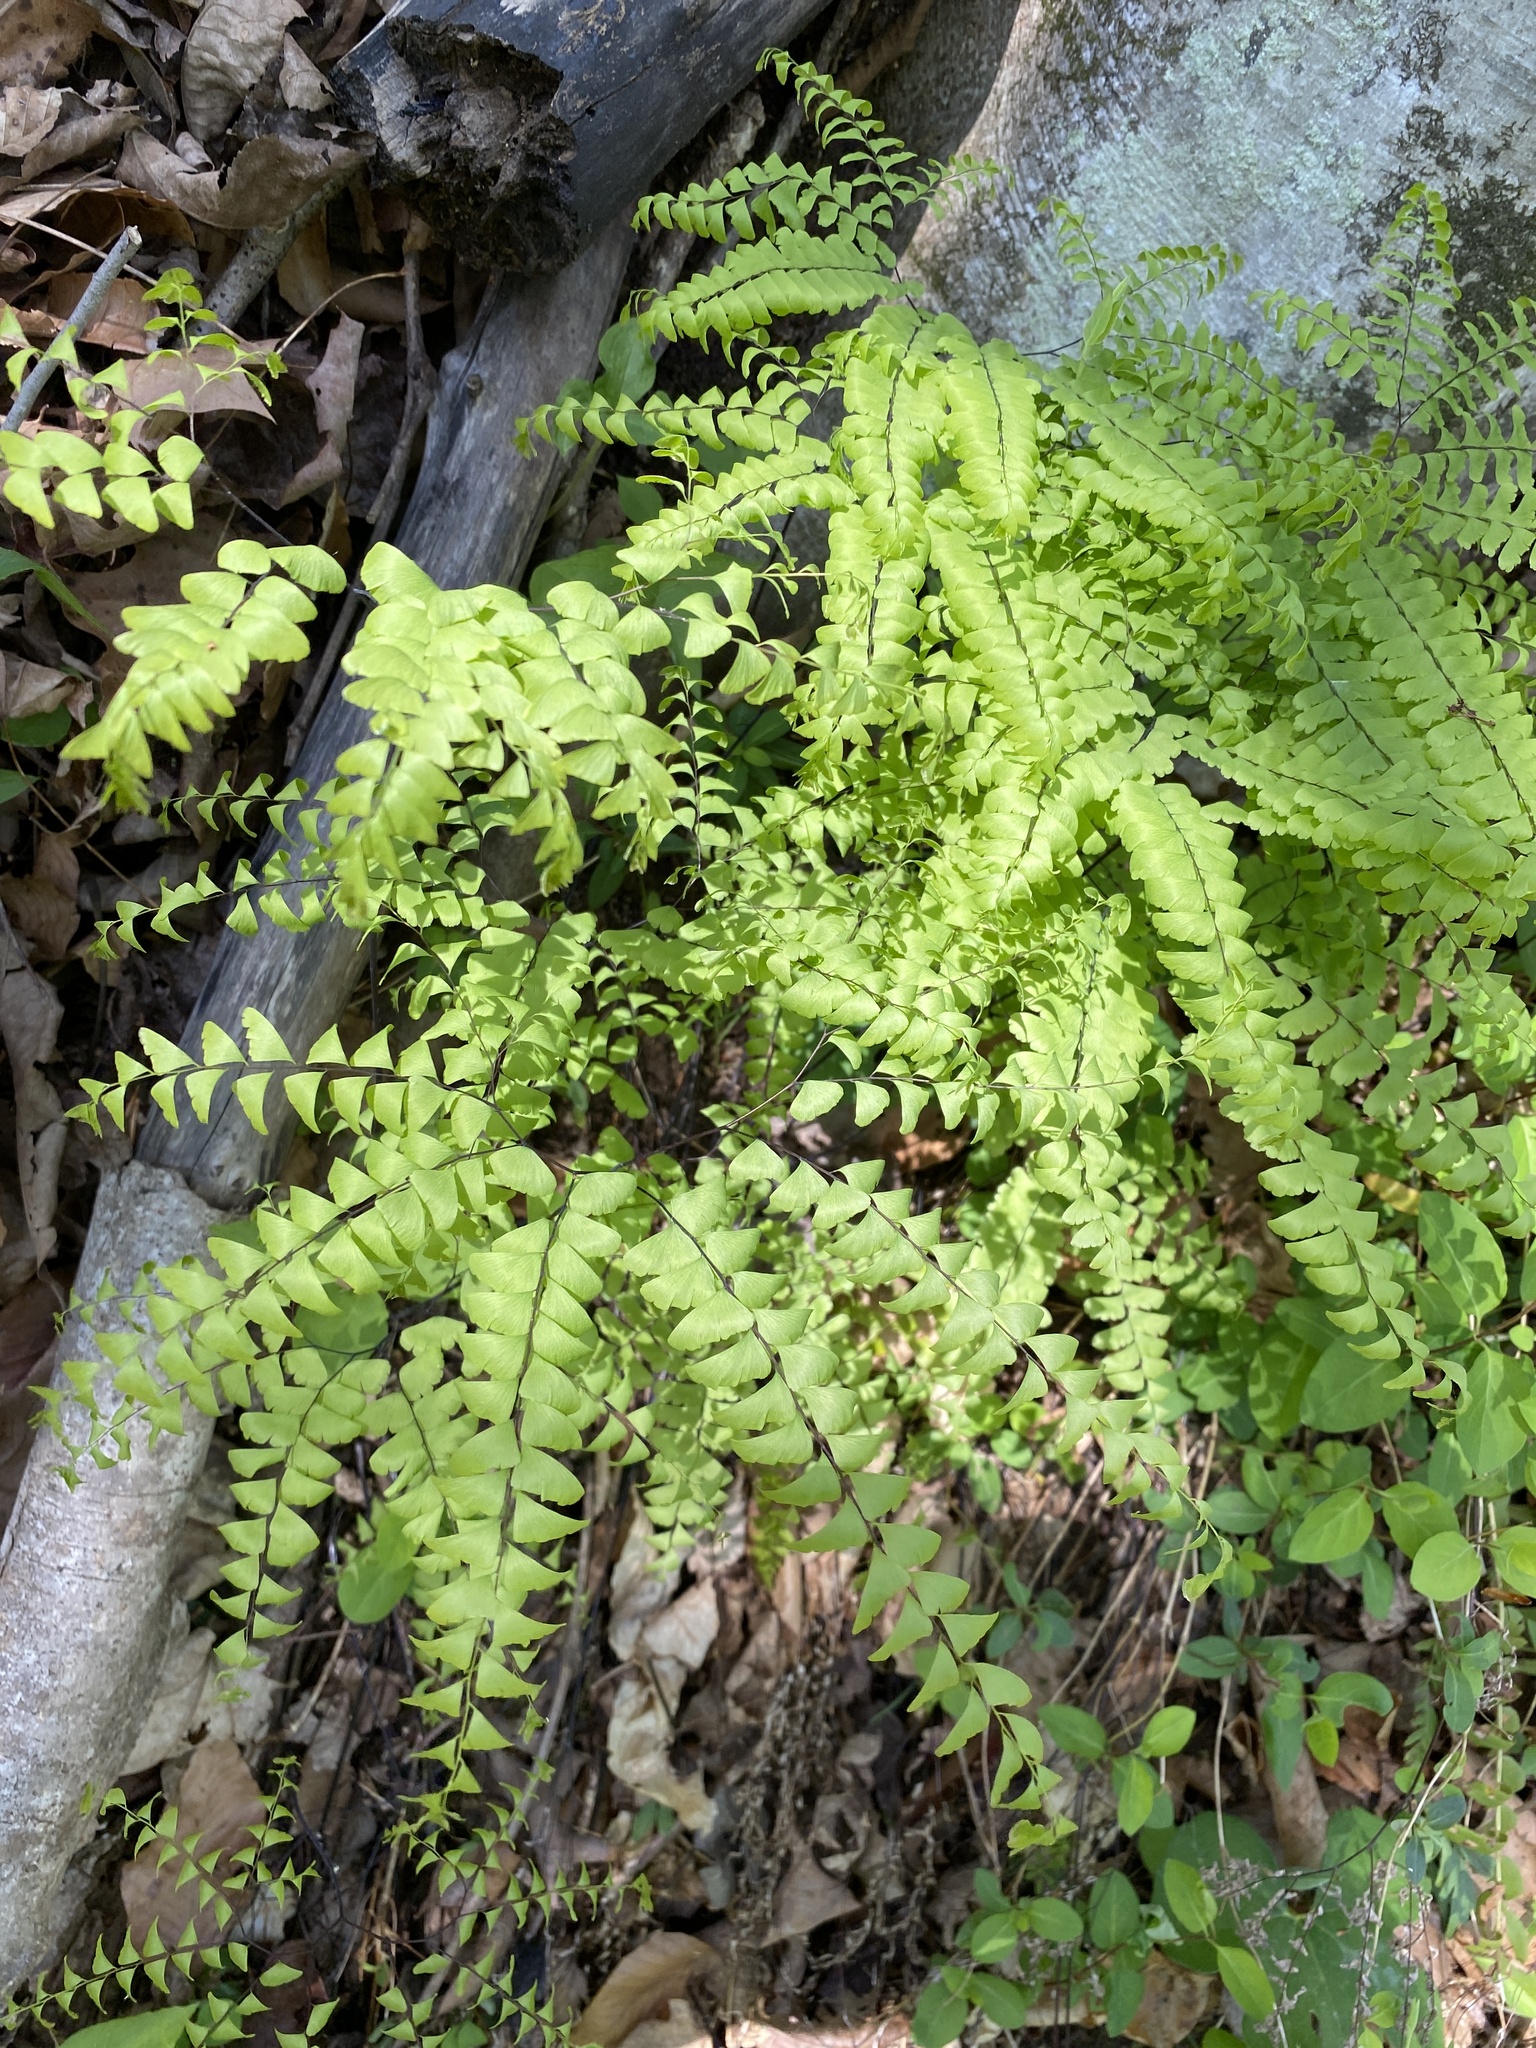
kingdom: Plantae
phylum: Tracheophyta
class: Polypodiopsida
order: Polypodiales
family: Pteridaceae
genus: Adiantum
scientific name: Adiantum pedatum
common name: Five-finger fern
